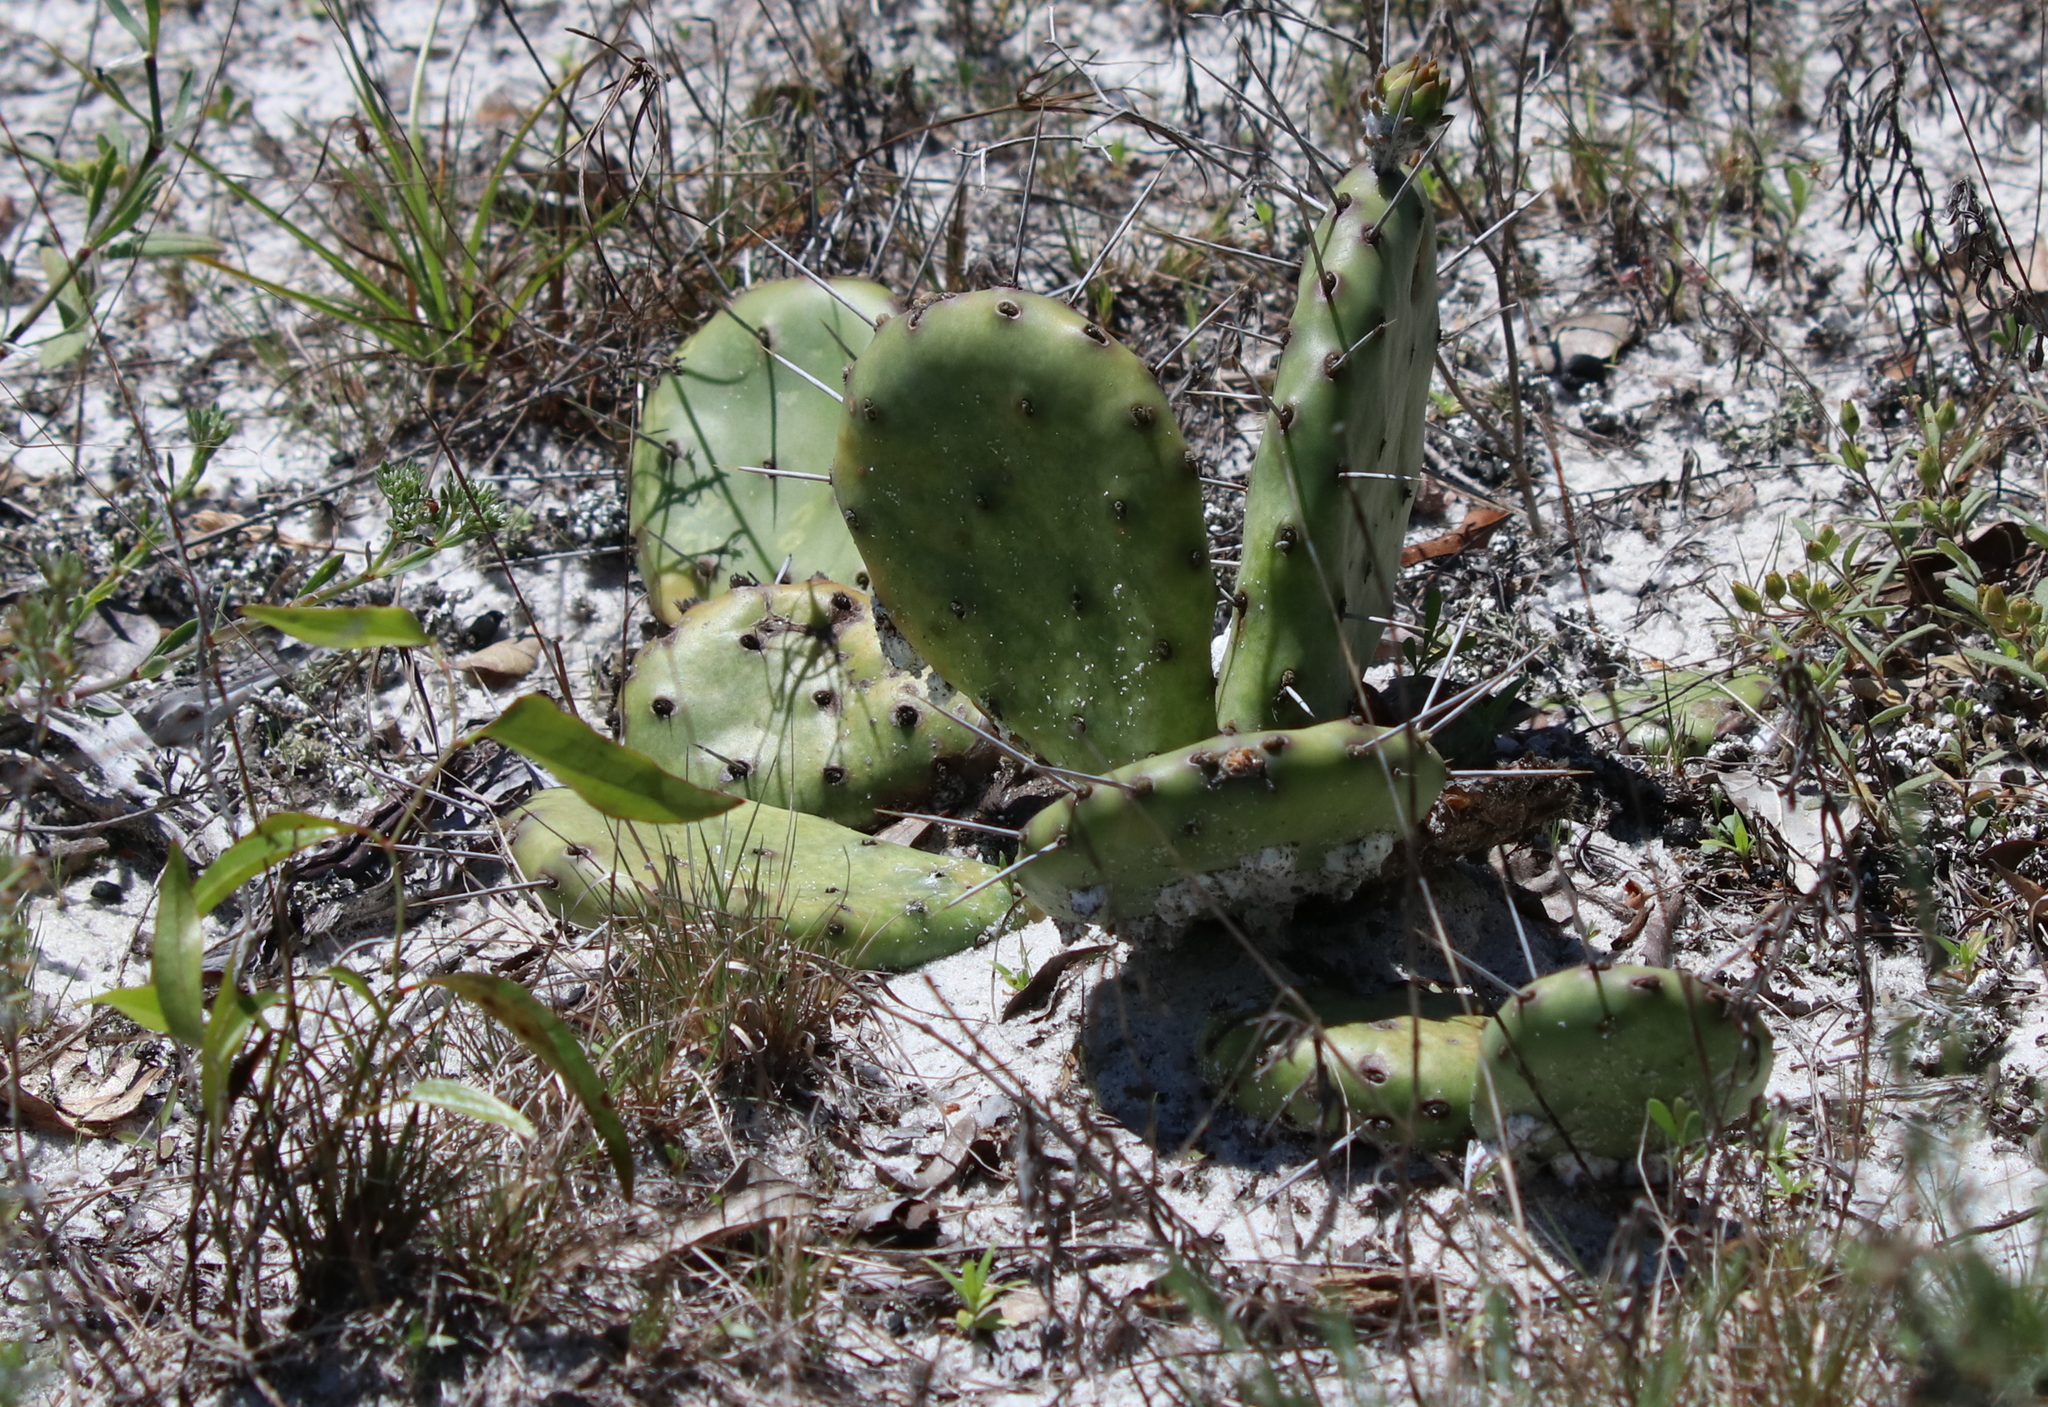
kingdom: Plantae
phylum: Tracheophyta
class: Magnoliopsida
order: Caryophyllales
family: Cactaceae
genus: Opuntia
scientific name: Opuntia mesacantha
